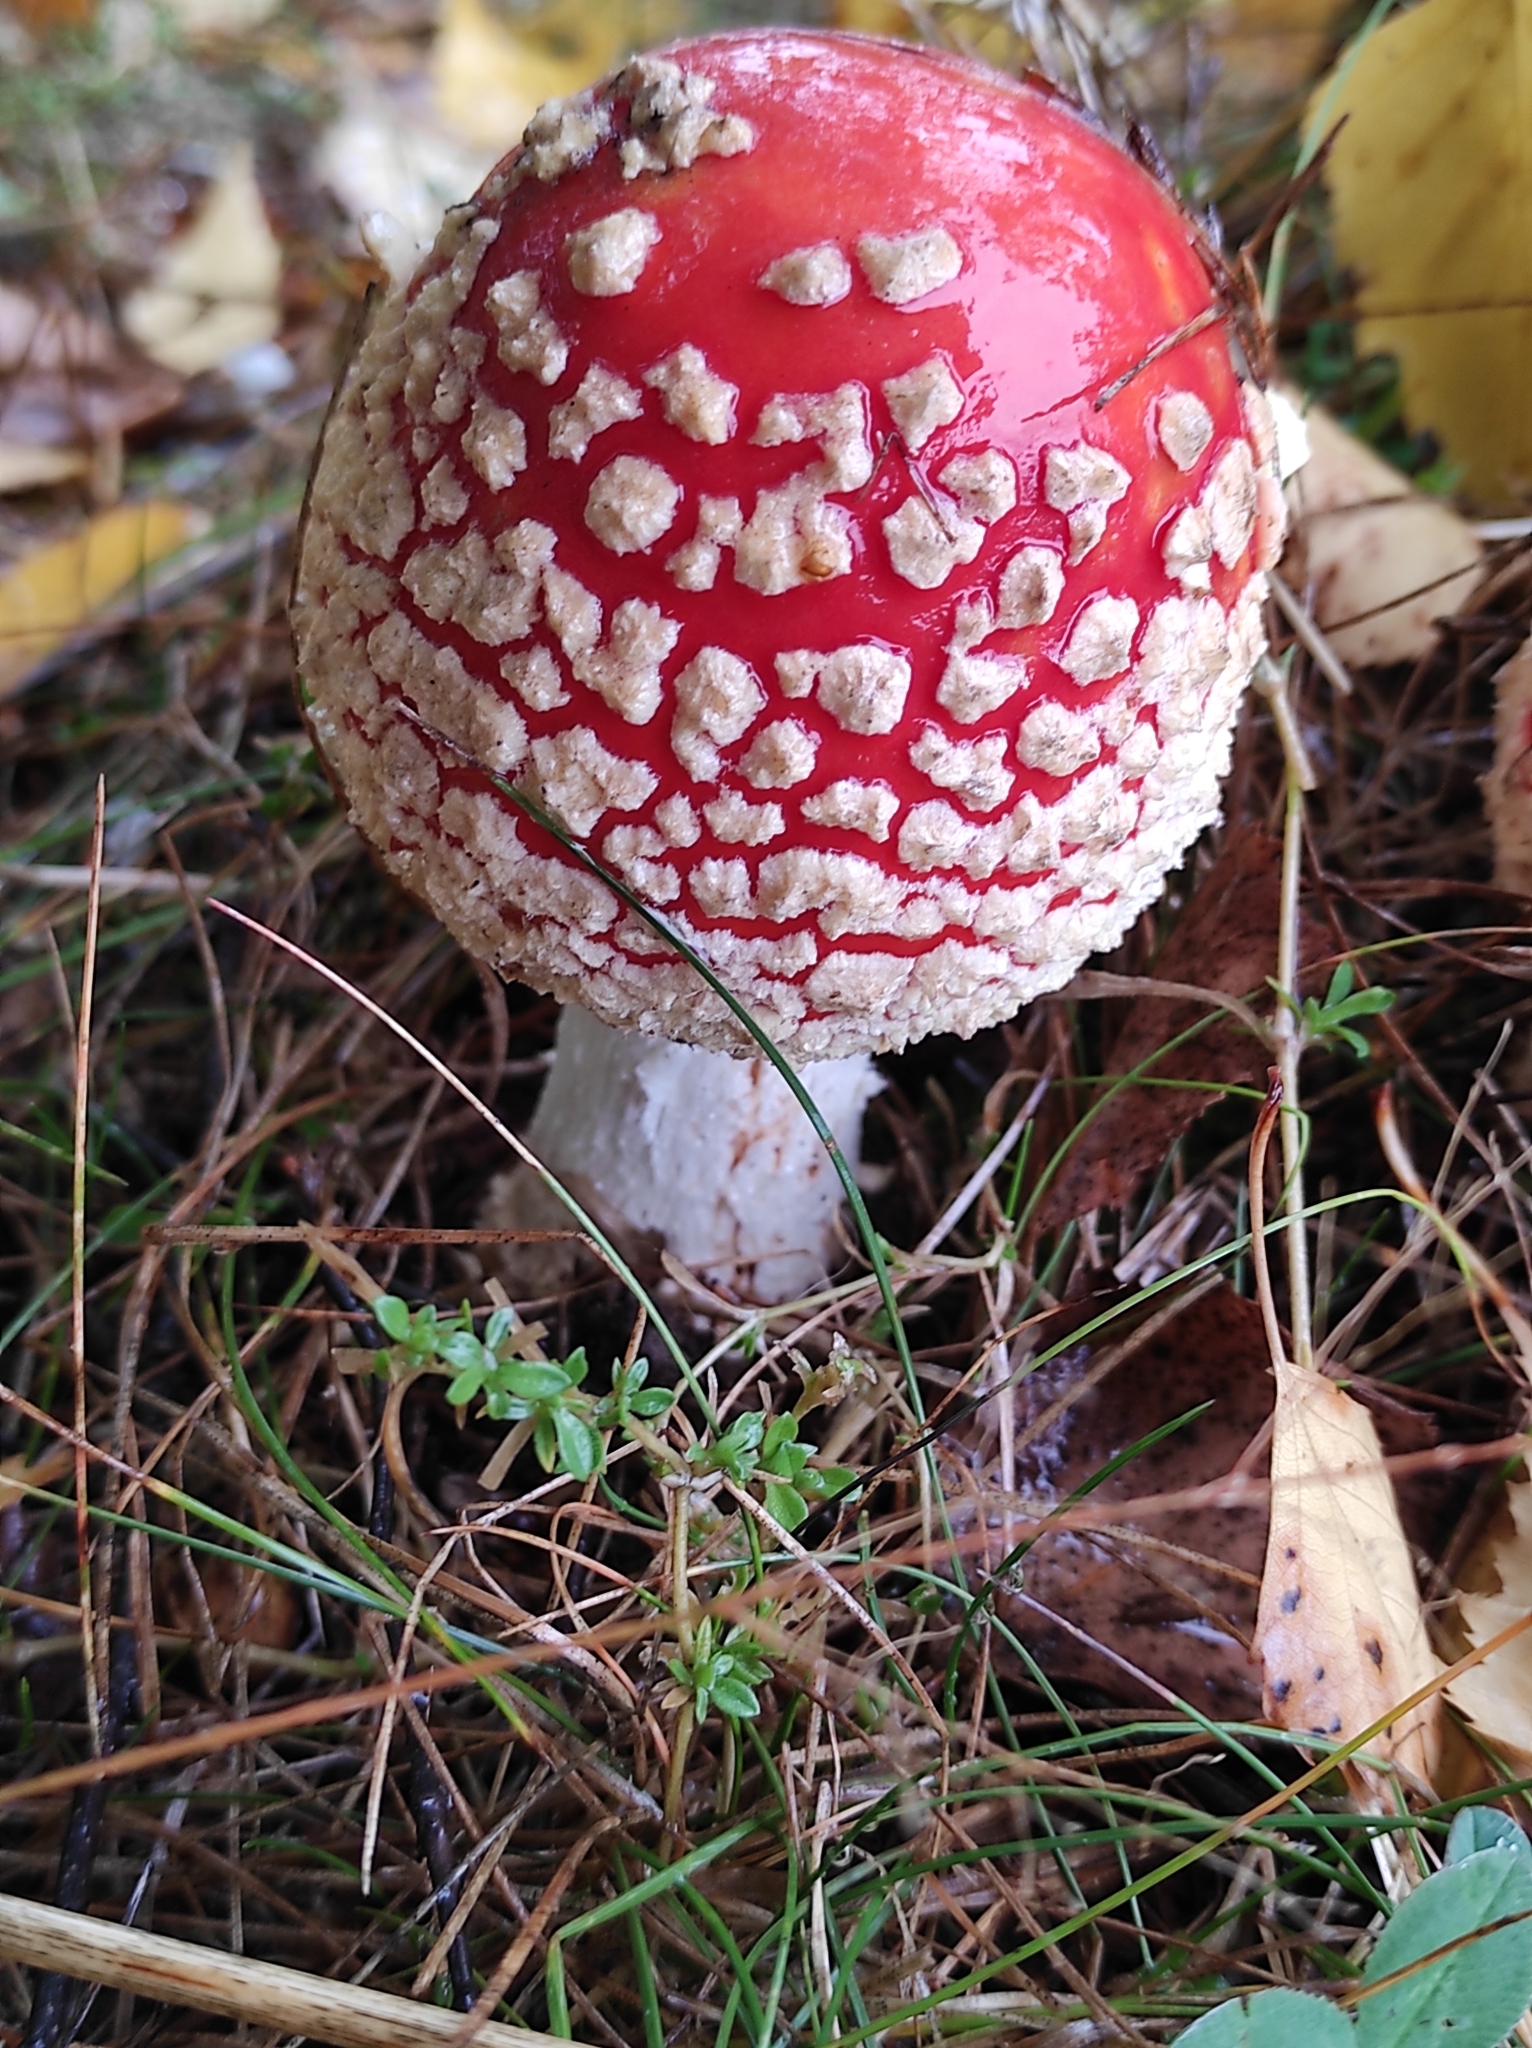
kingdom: Fungi
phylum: Basidiomycota
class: Agaricomycetes
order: Agaricales
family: Amanitaceae
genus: Amanita
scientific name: Amanita muscaria
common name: Fly agaric
